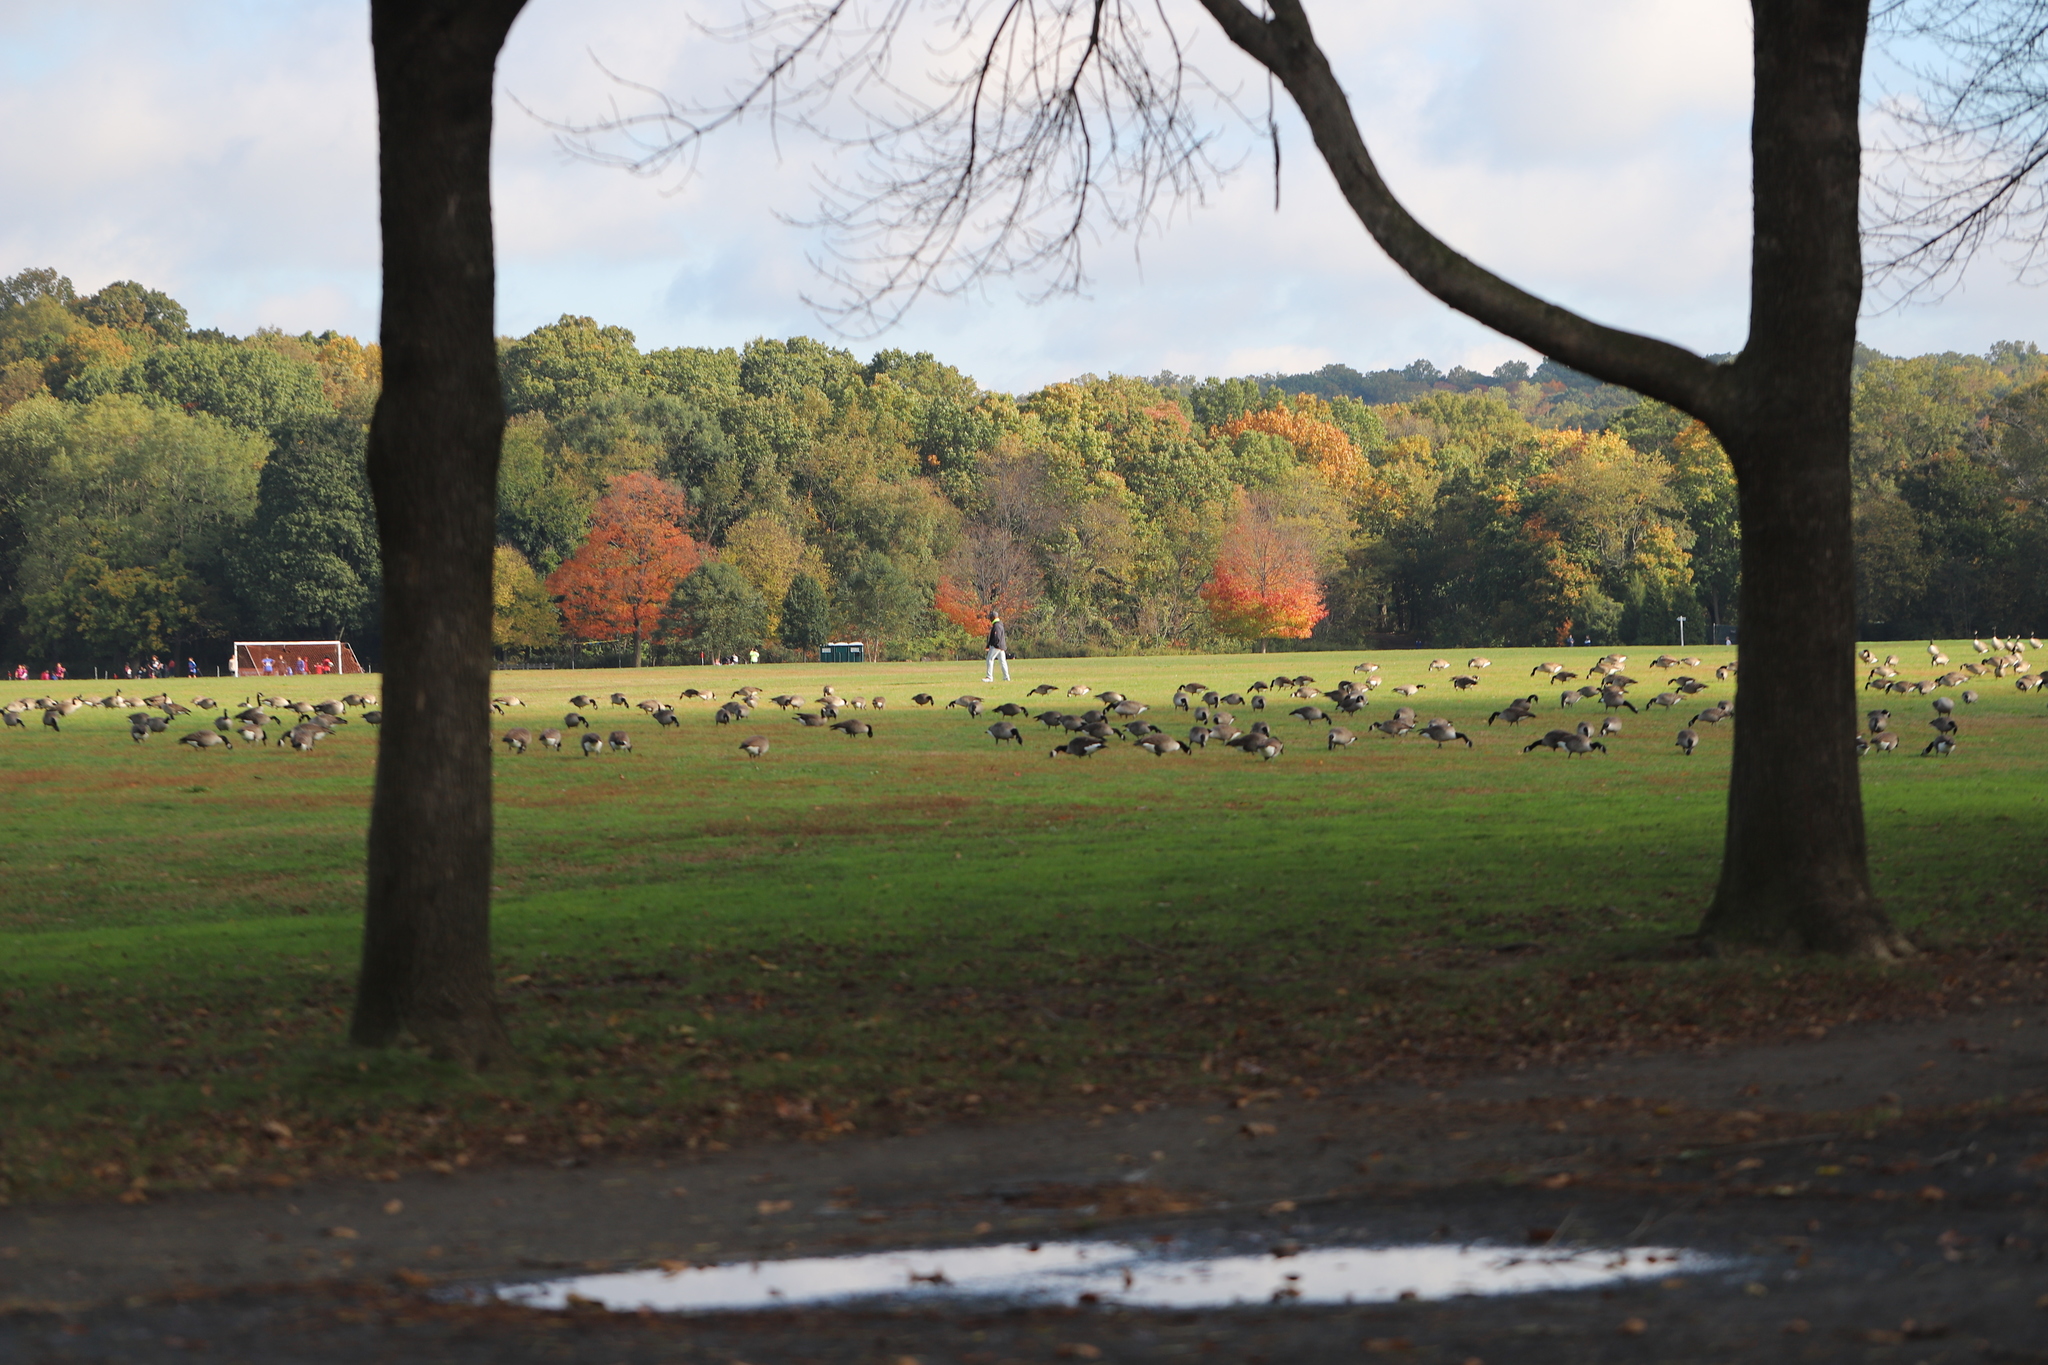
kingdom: Animalia
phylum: Chordata
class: Aves
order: Anseriformes
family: Anatidae
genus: Branta
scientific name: Branta canadensis
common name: Canada goose
